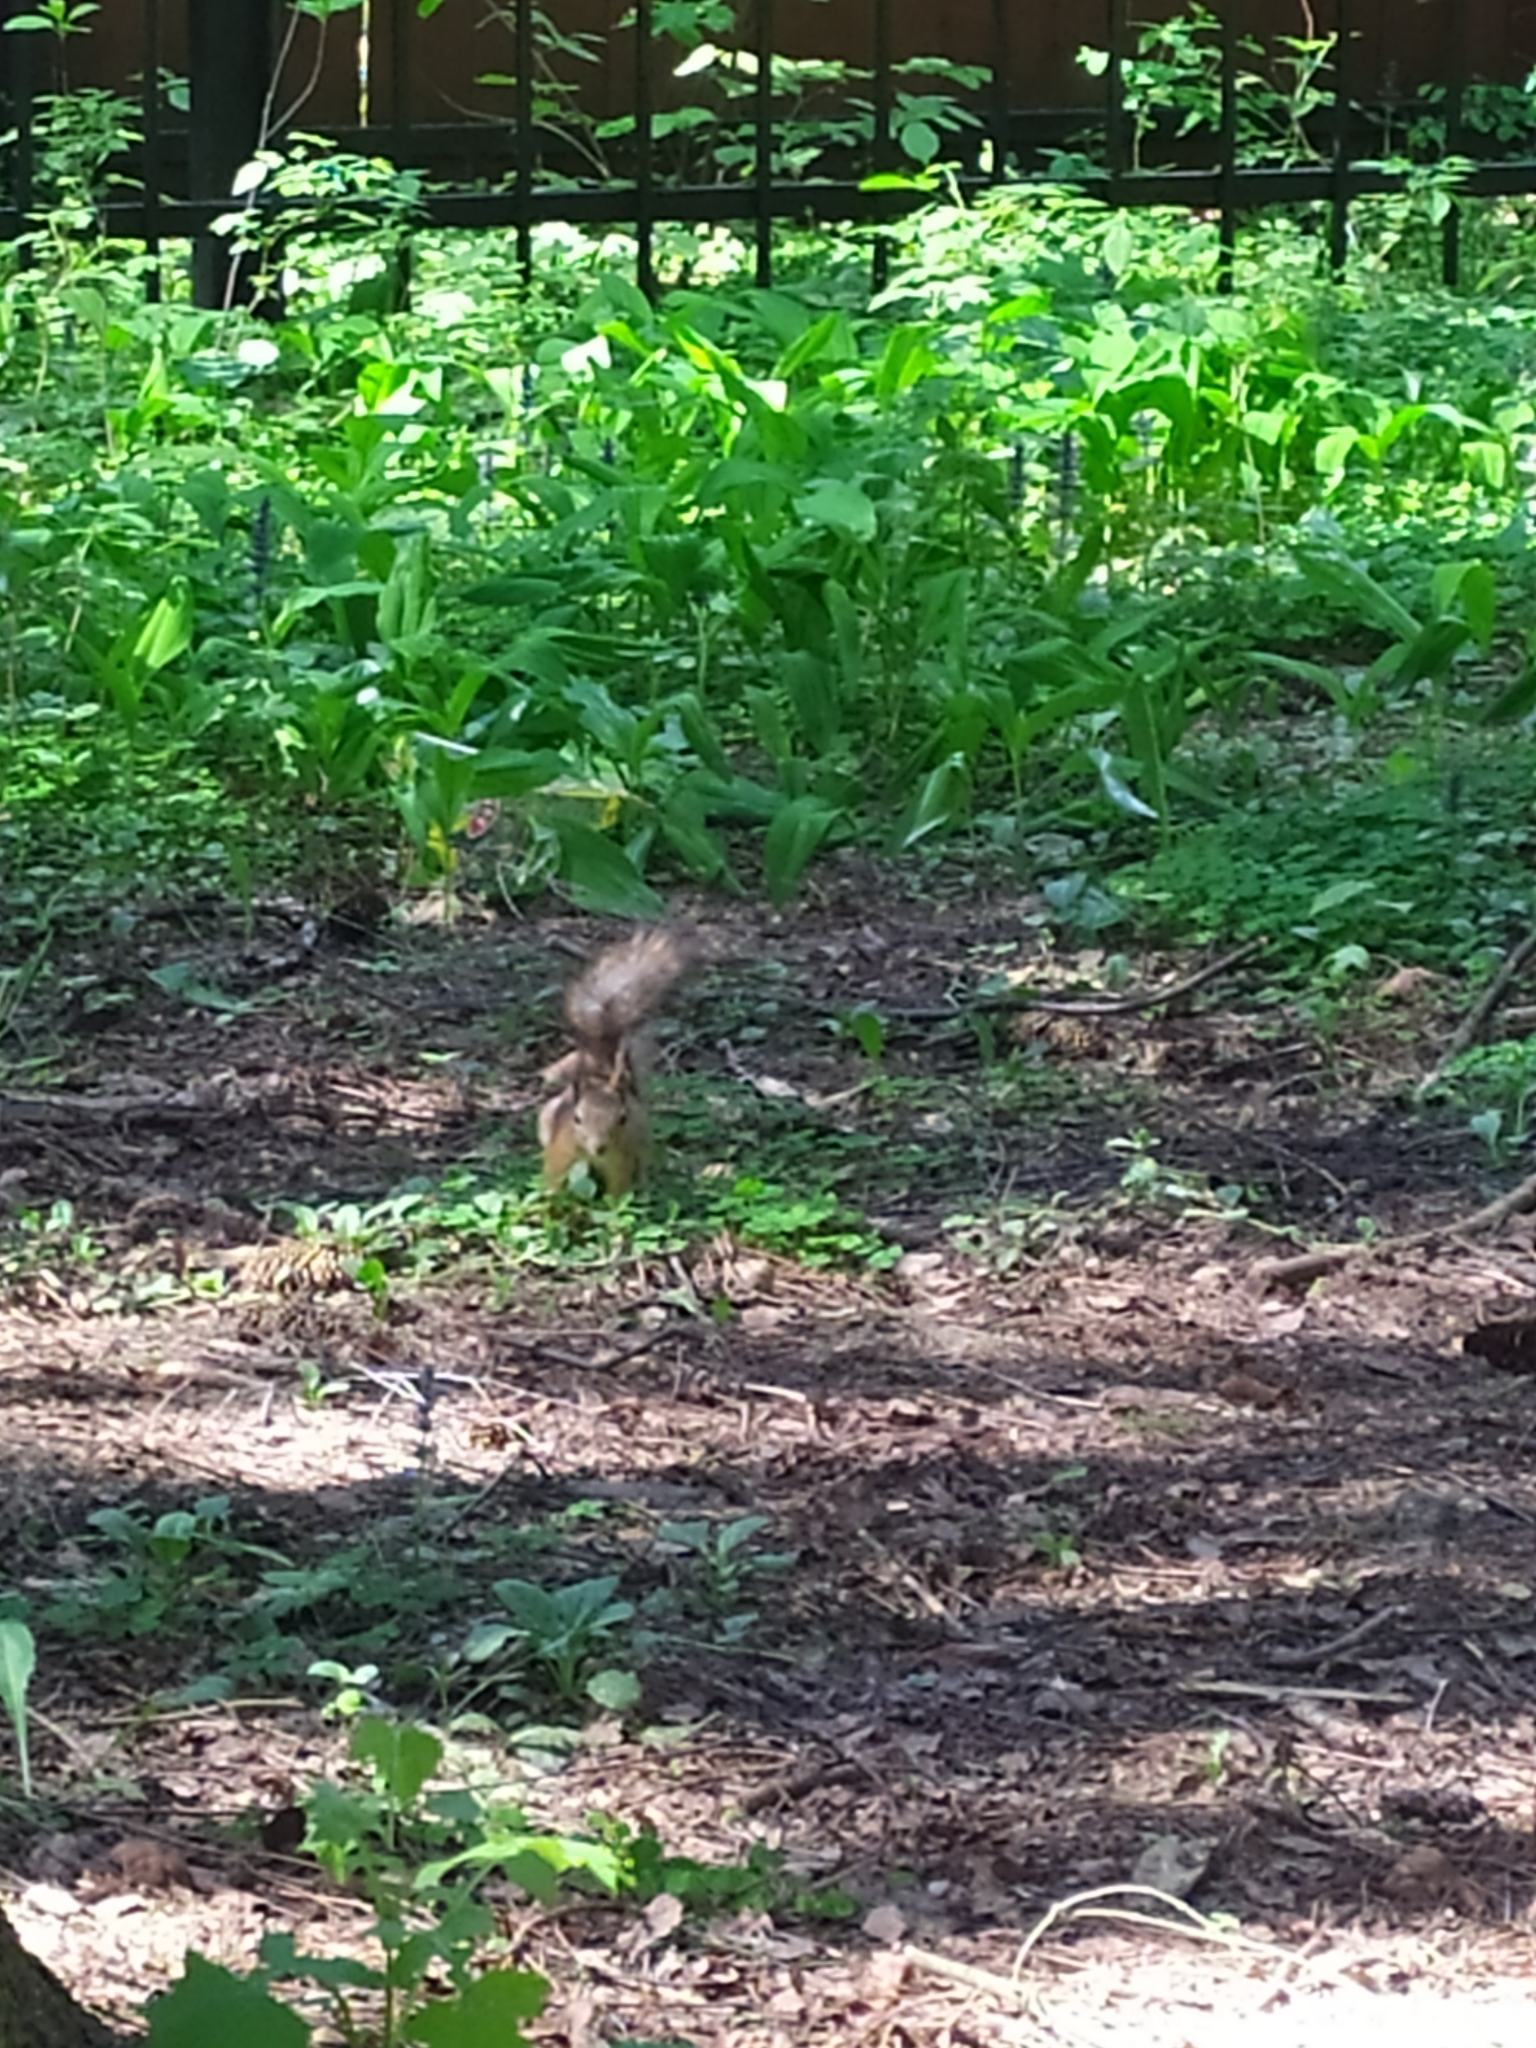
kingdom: Animalia
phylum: Chordata
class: Mammalia
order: Rodentia
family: Sciuridae
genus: Sciurus
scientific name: Sciurus vulgaris
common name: Eurasian red squirrel
